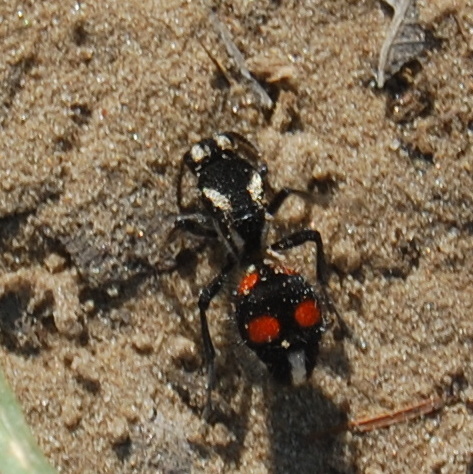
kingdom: Animalia
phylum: Arthropoda
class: Insecta
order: Hymenoptera
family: Mutillidae
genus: Traumatomutilla
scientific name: Traumatomutilla bivittata
